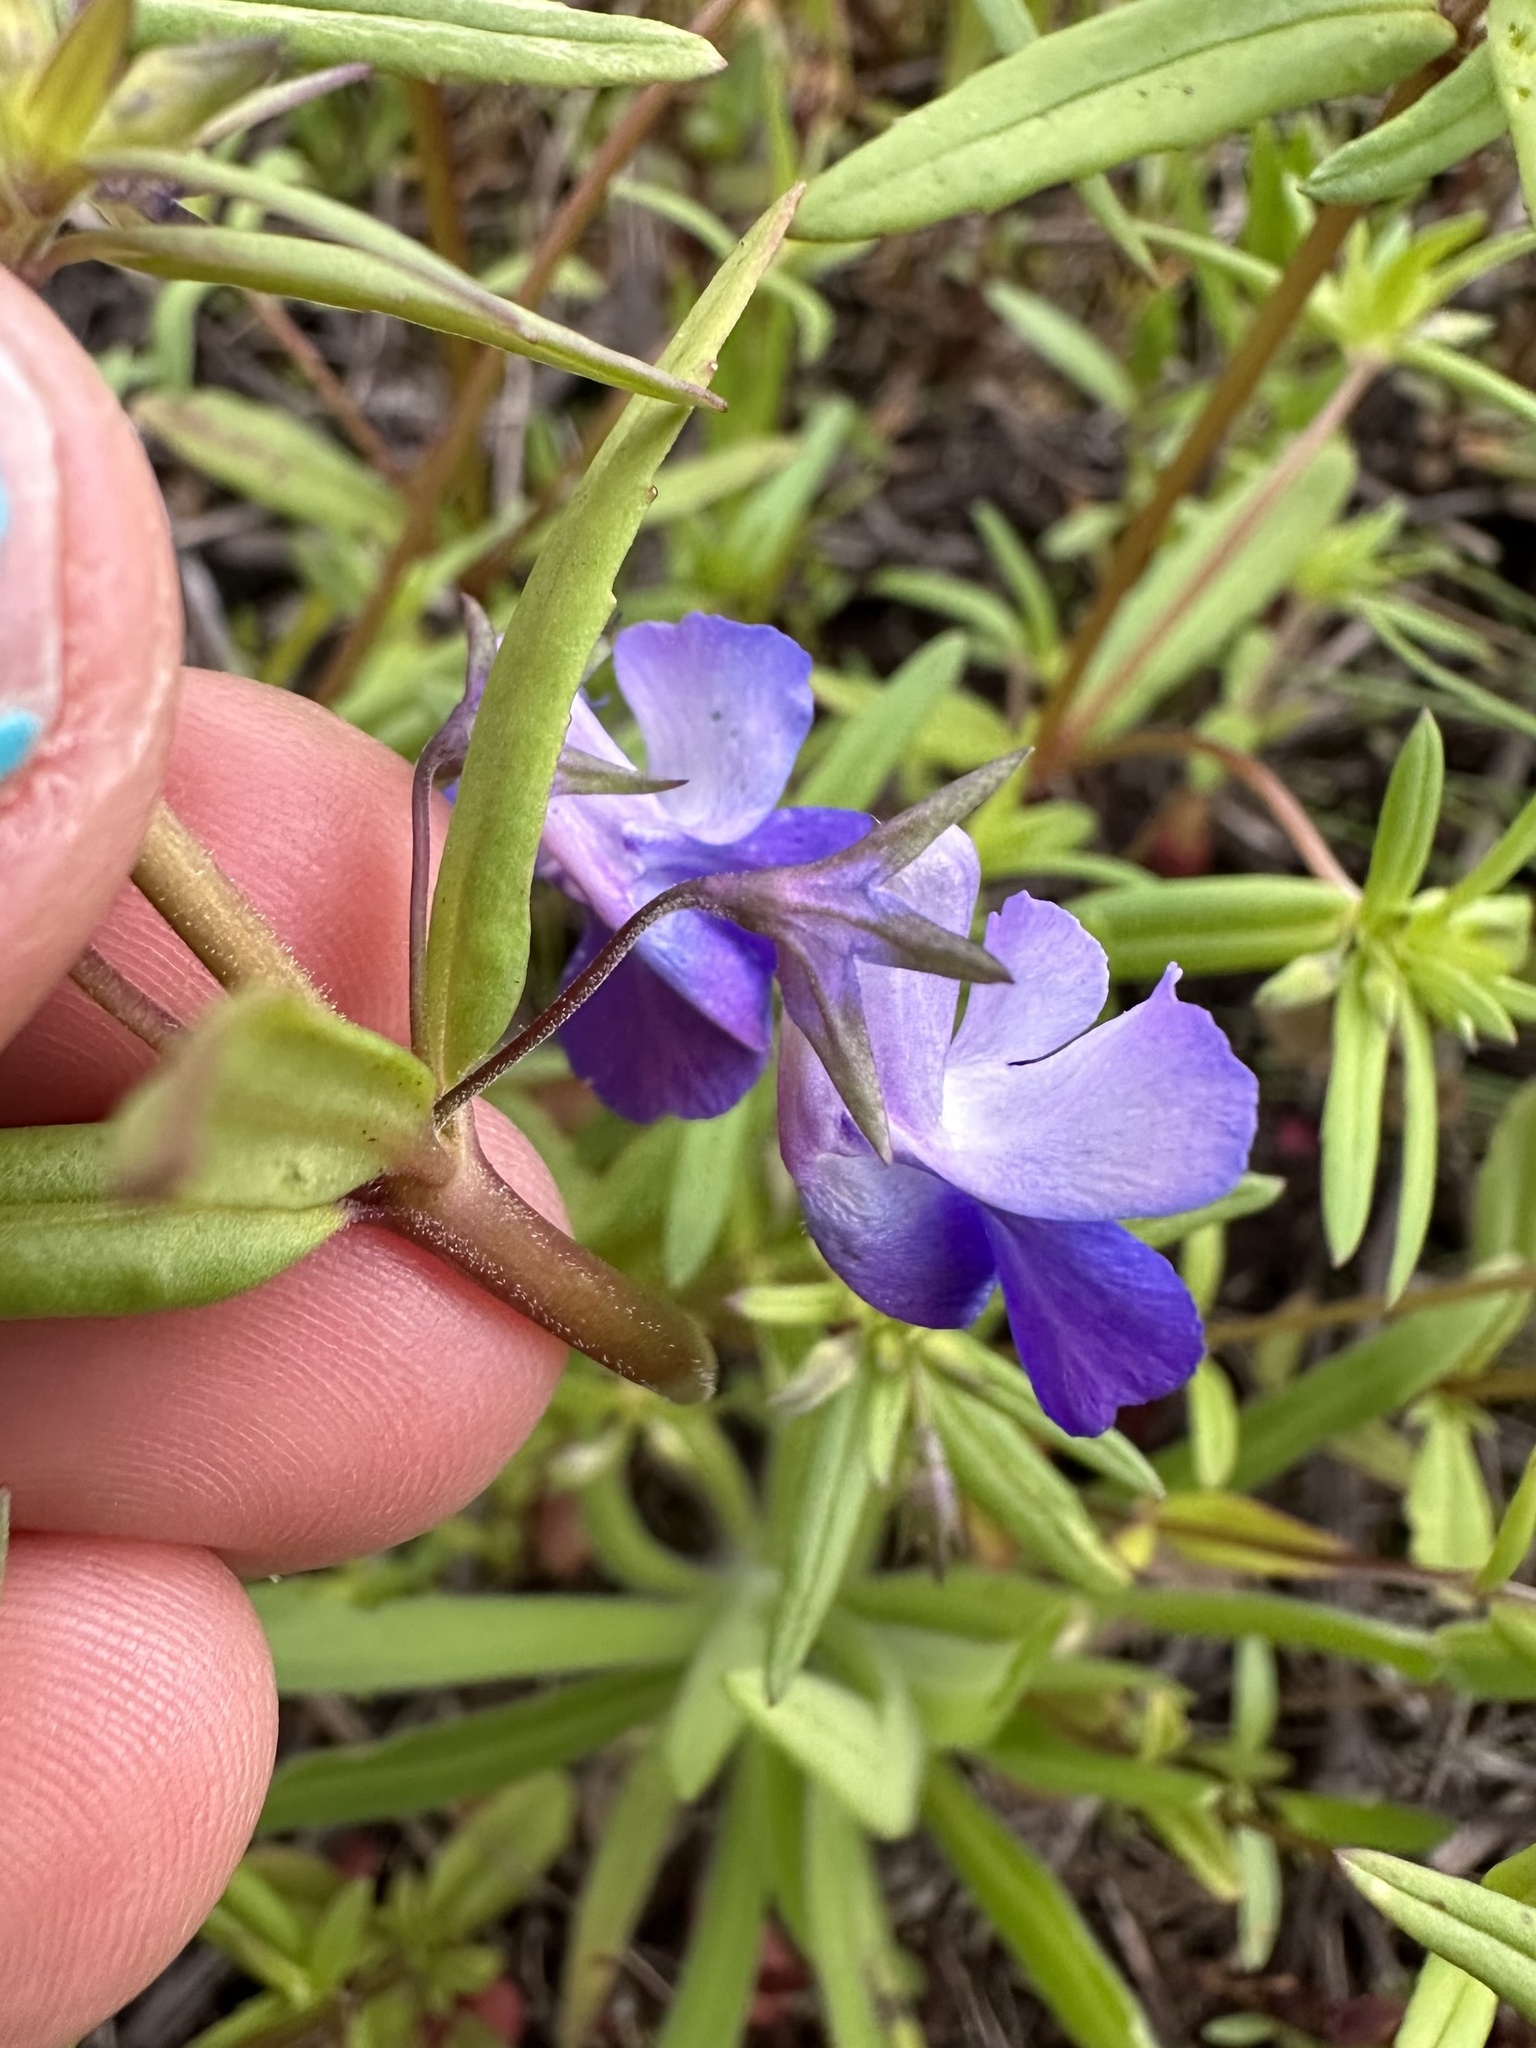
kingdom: Plantae
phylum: Tracheophyta
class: Magnoliopsida
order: Lamiales
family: Plantaginaceae
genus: Collinsia
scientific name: Collinsia grandiflora
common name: Large-flower blue-eyed-mary
